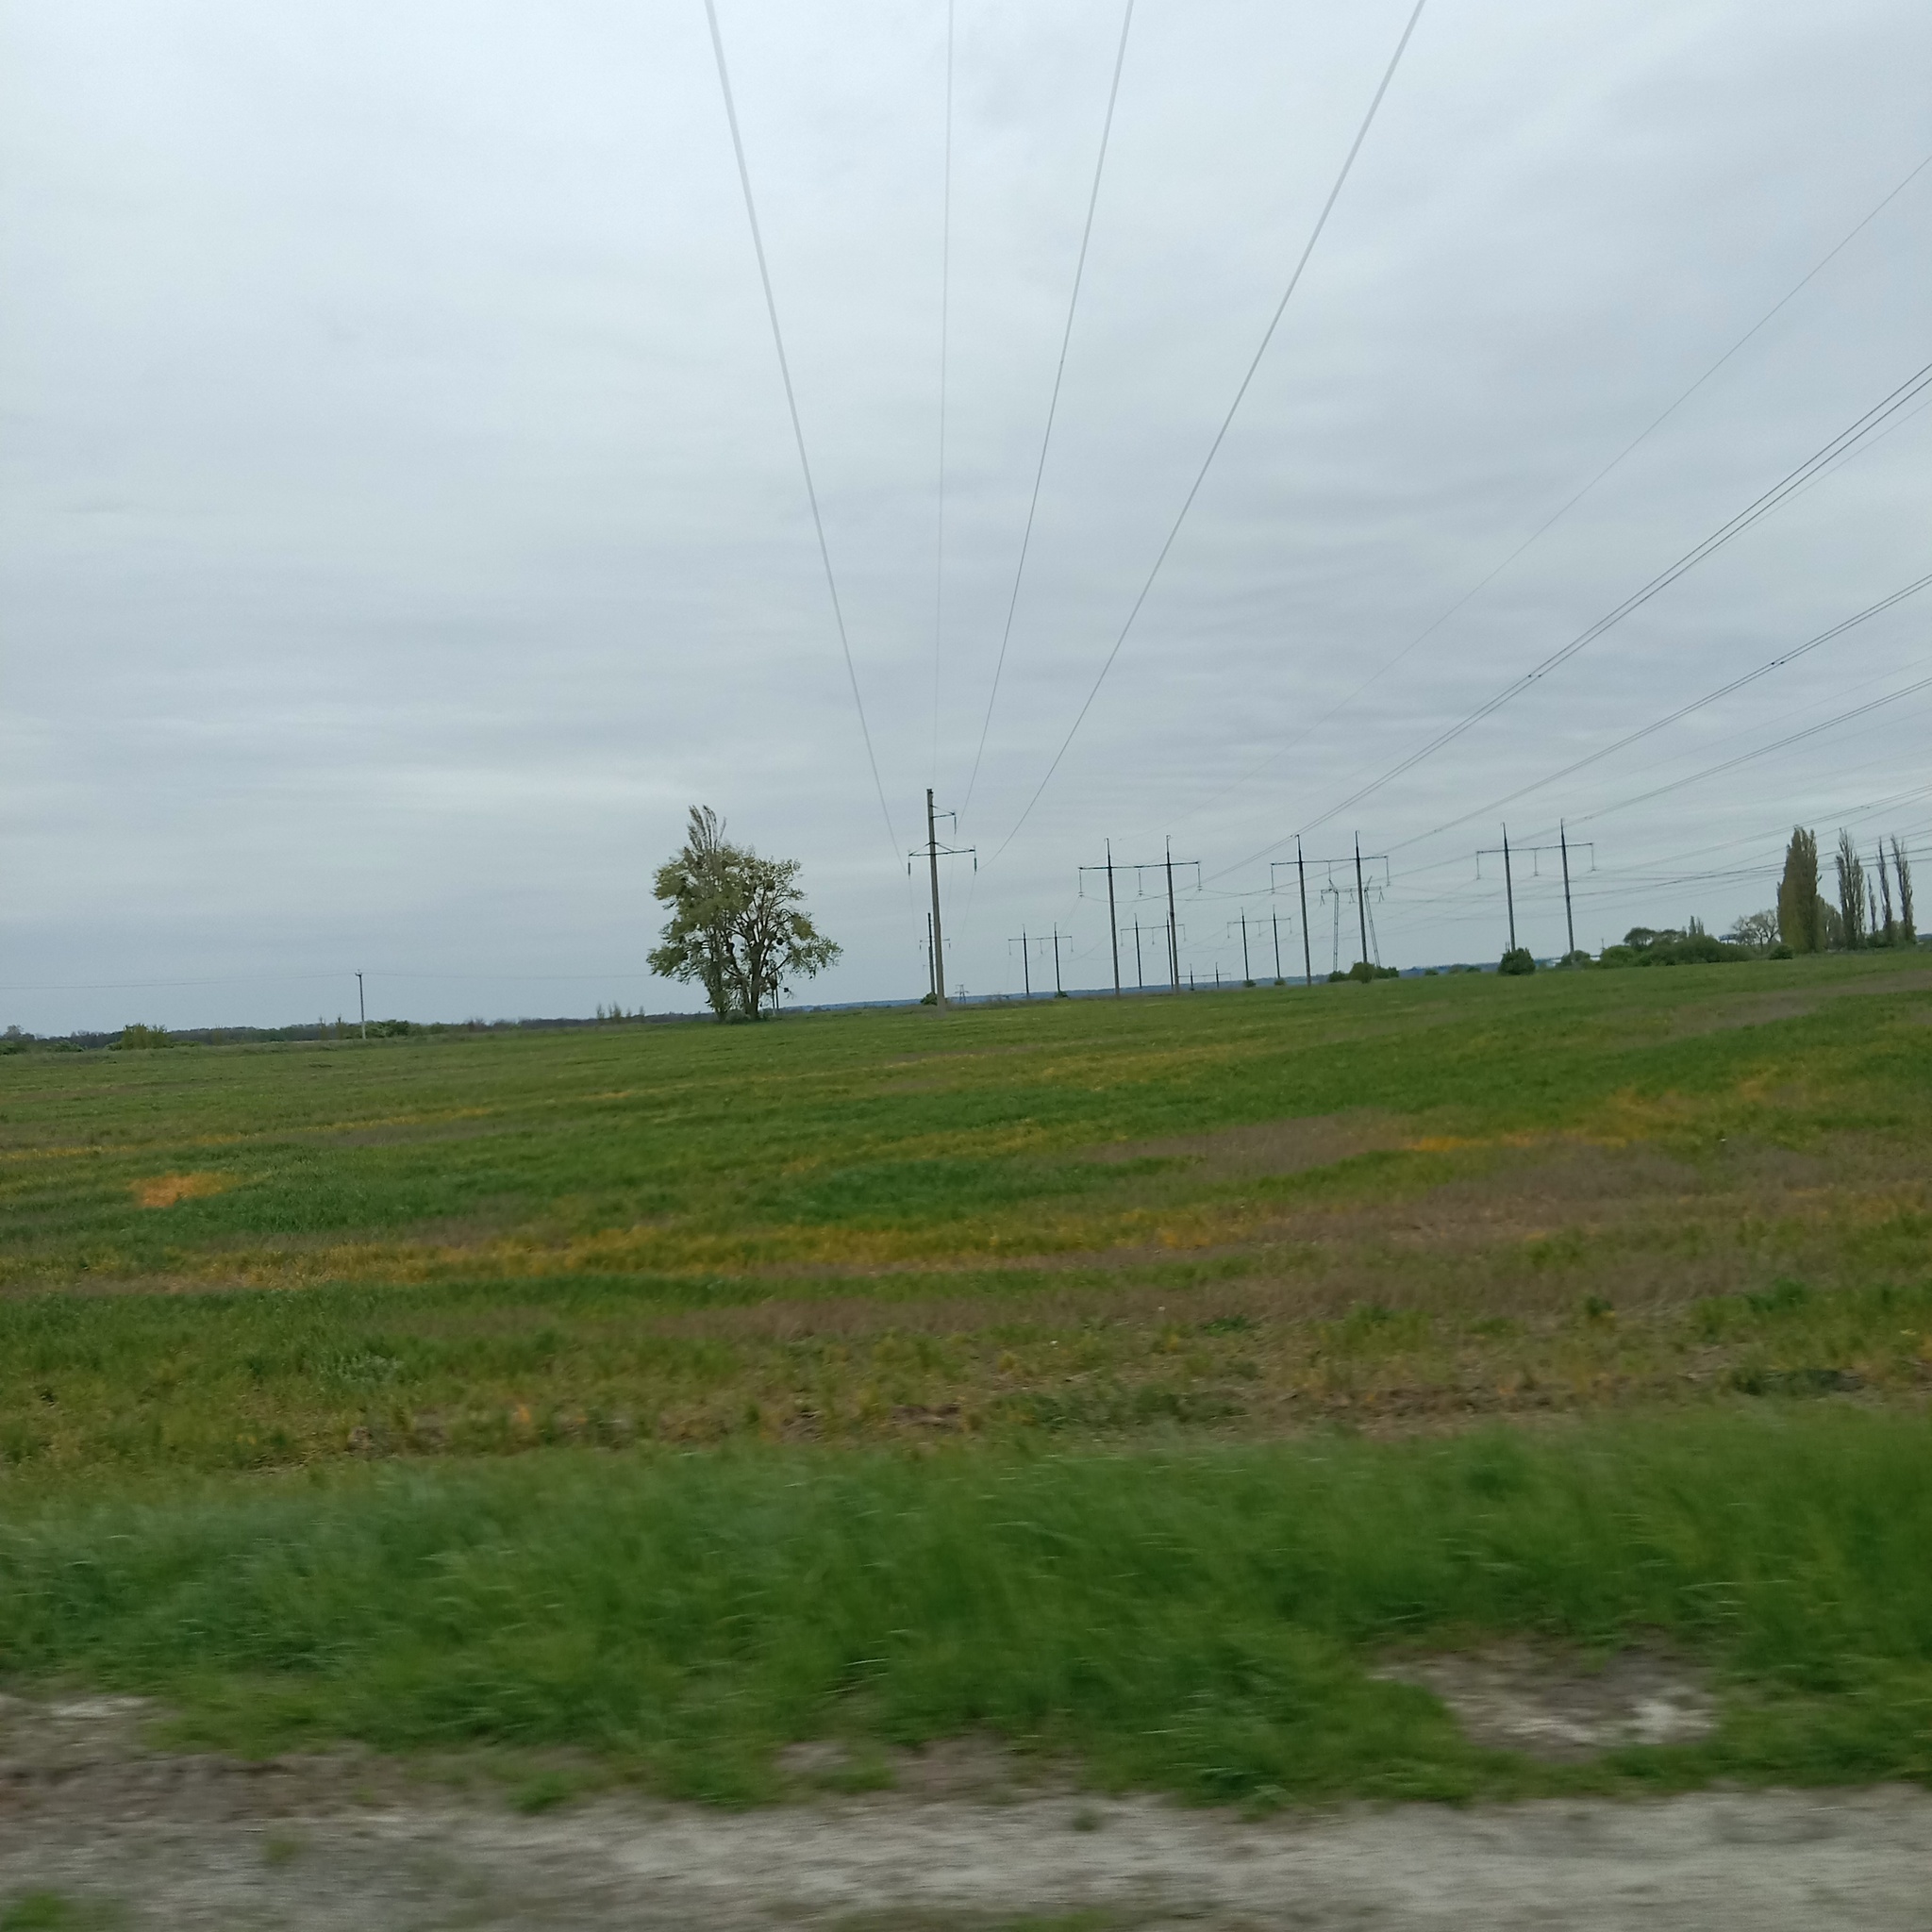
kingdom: Plantae
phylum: Tracheophyta
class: Magnoliopsida
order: Santalales
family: Viscaceae
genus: Viscum
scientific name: Viscum album
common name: Mistletoe
